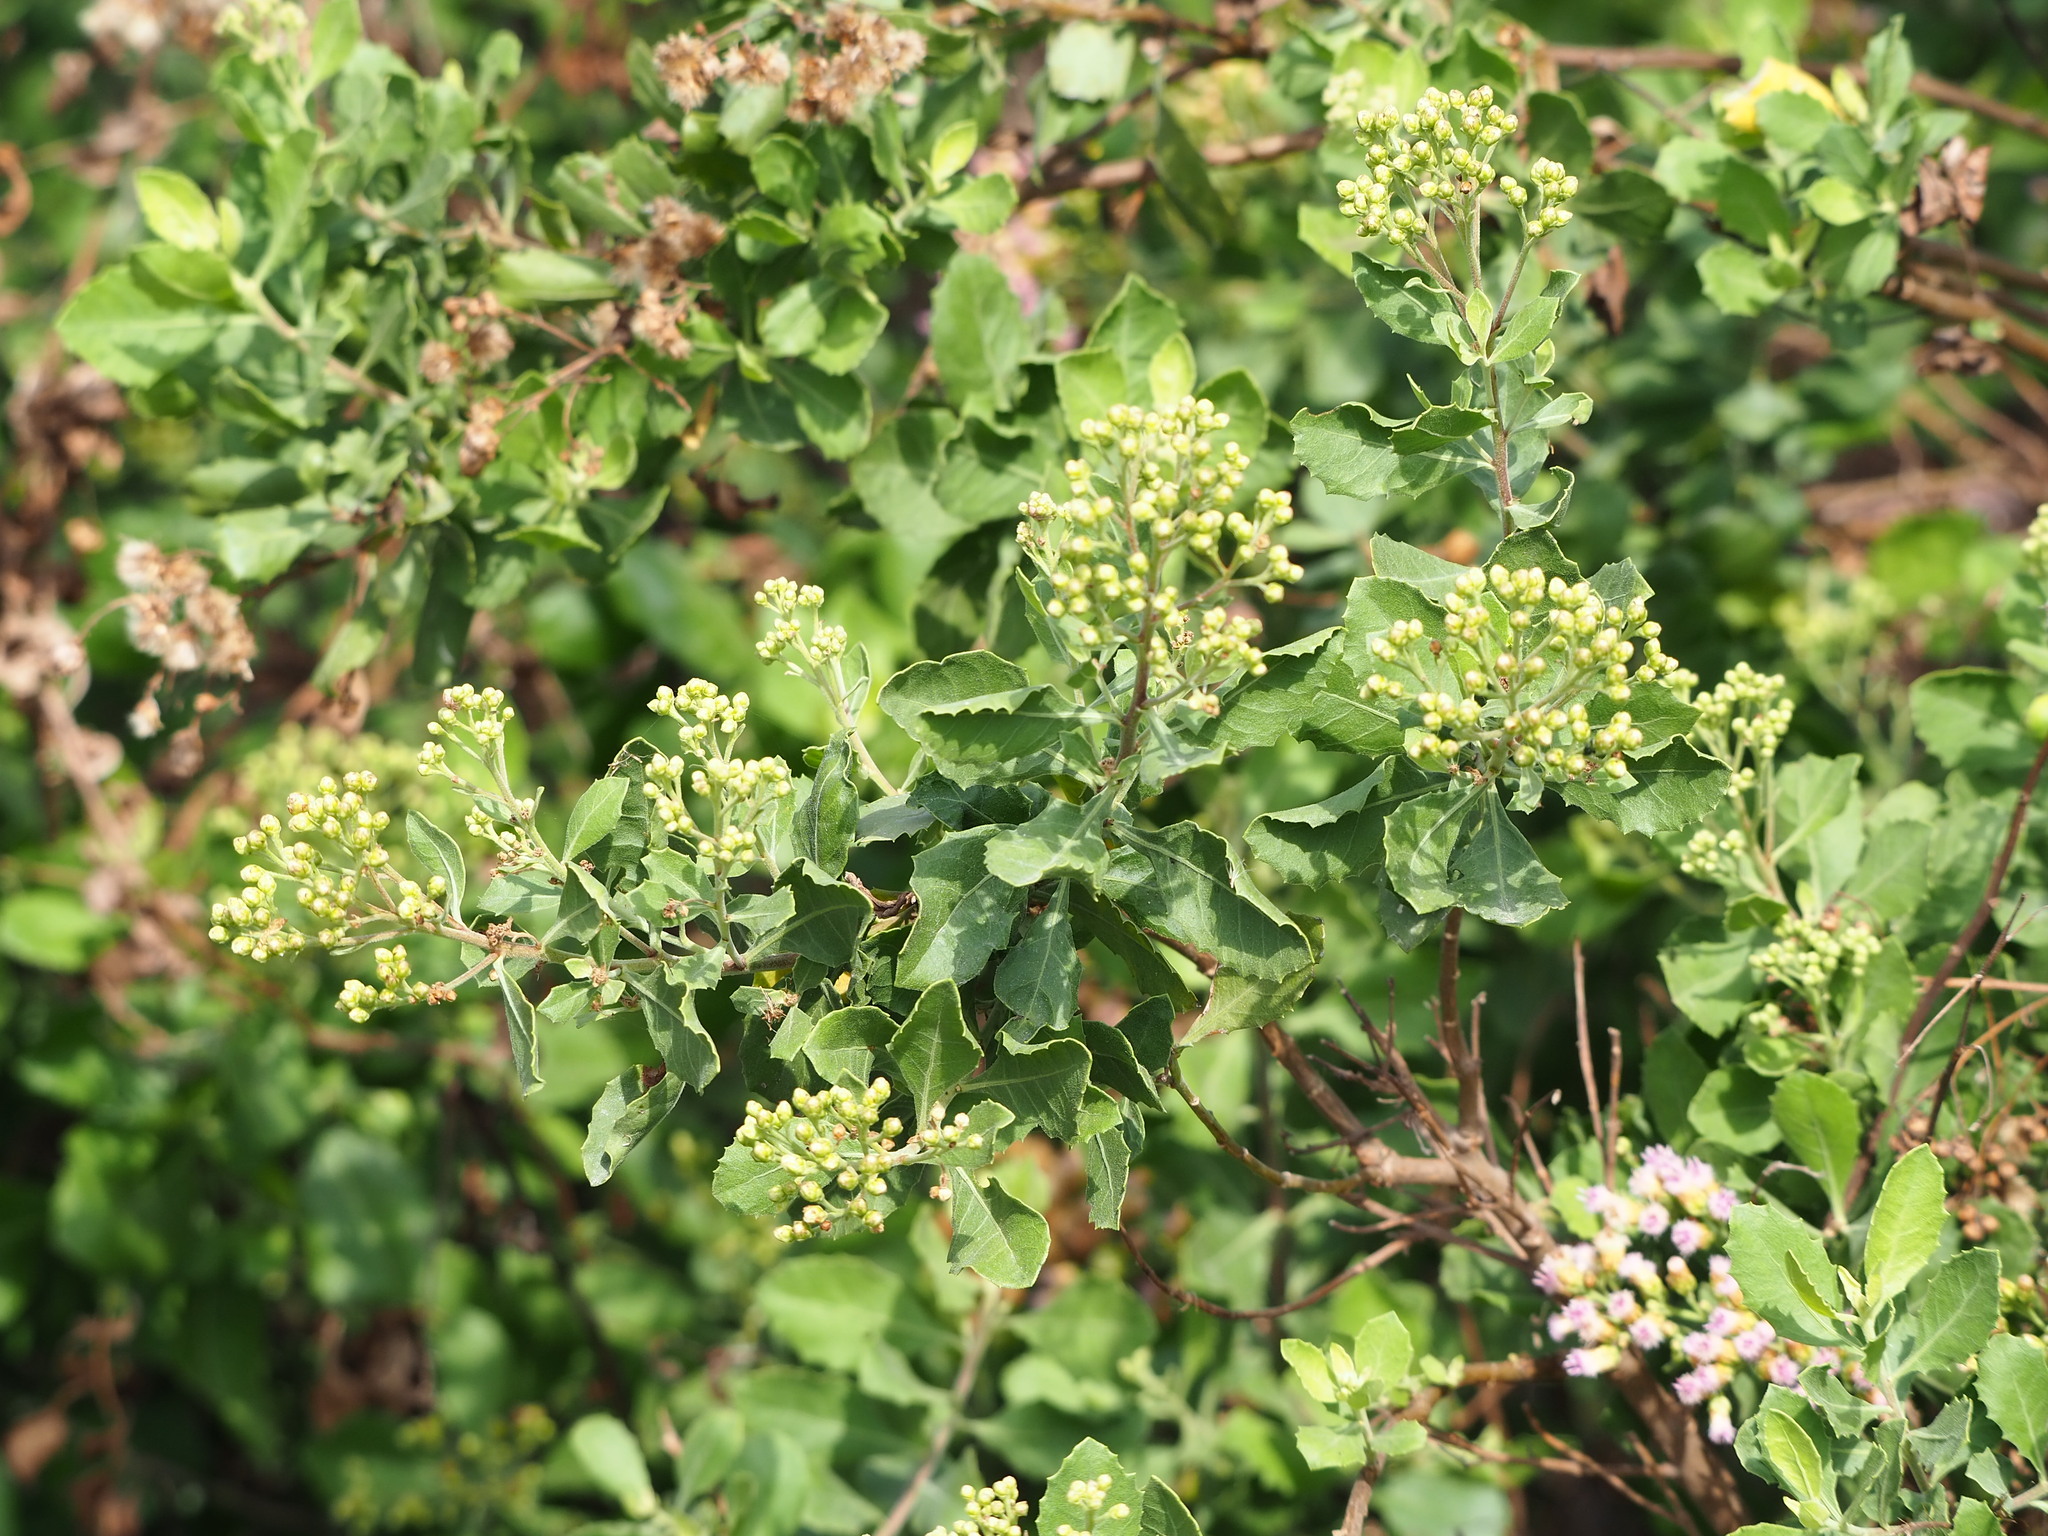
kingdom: Plantae
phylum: Tracheophyta
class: Magnoliopsida
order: Asterales
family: Asteraceae
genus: Pluchea
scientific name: Pluchea indica
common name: Indian fleabane
